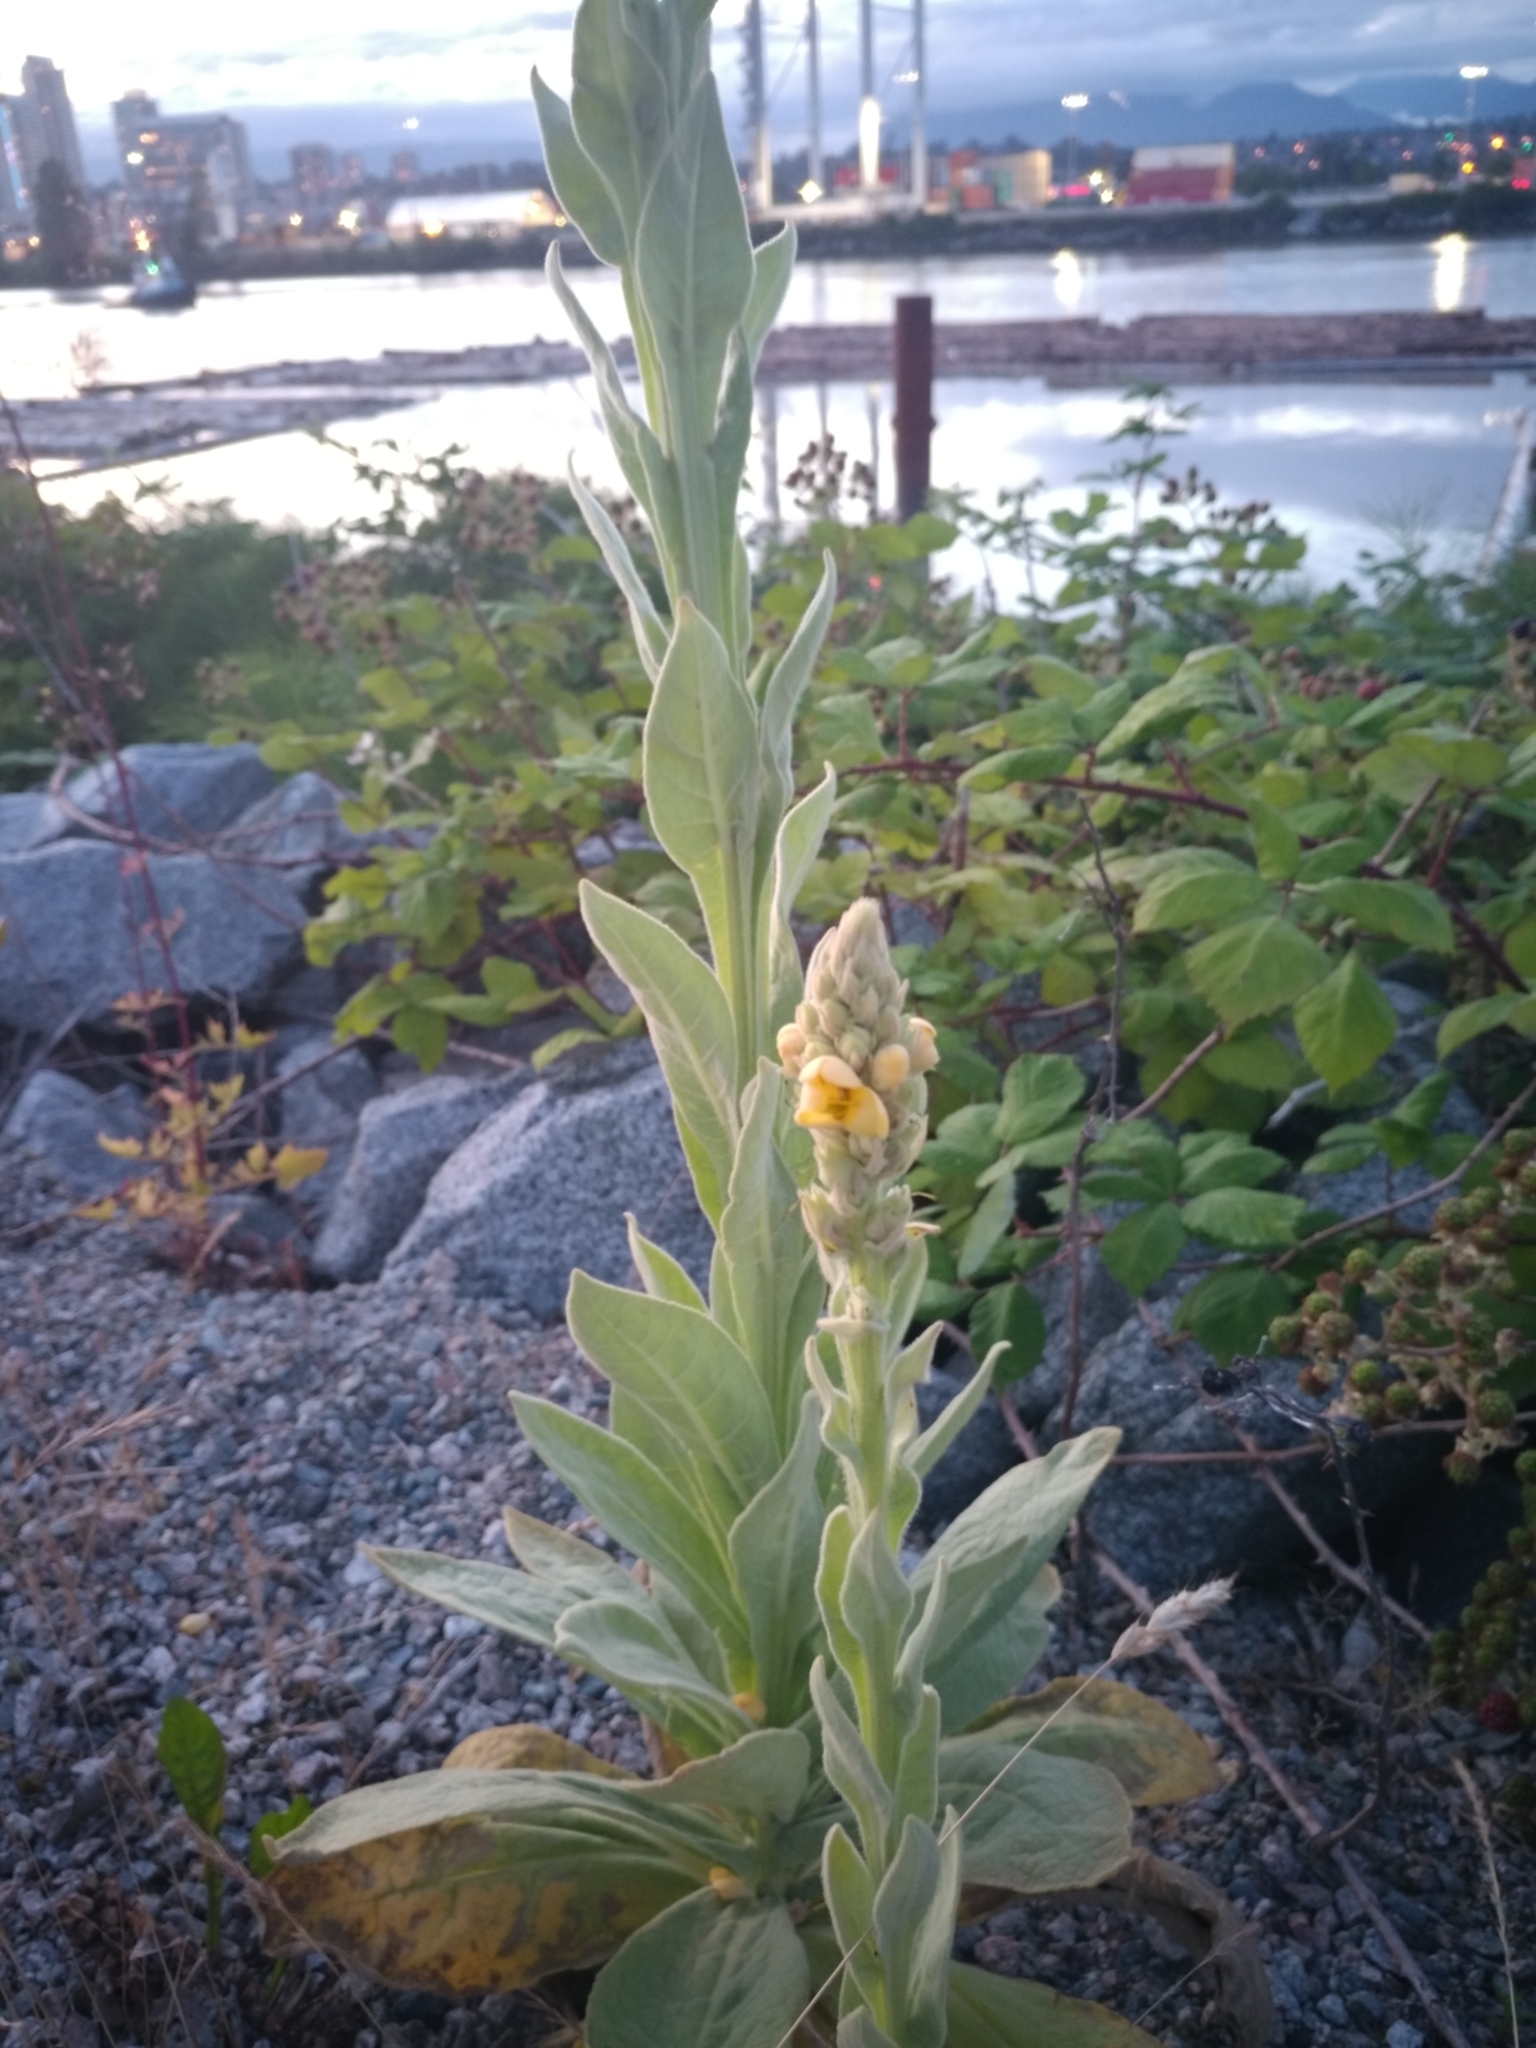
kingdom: Plantae
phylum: Tracheophyta
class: Magnoliopsida
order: Lamiales
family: Scrophulariaceae
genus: Verbascum
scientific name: Verbascum thapsus
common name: Common mullein
